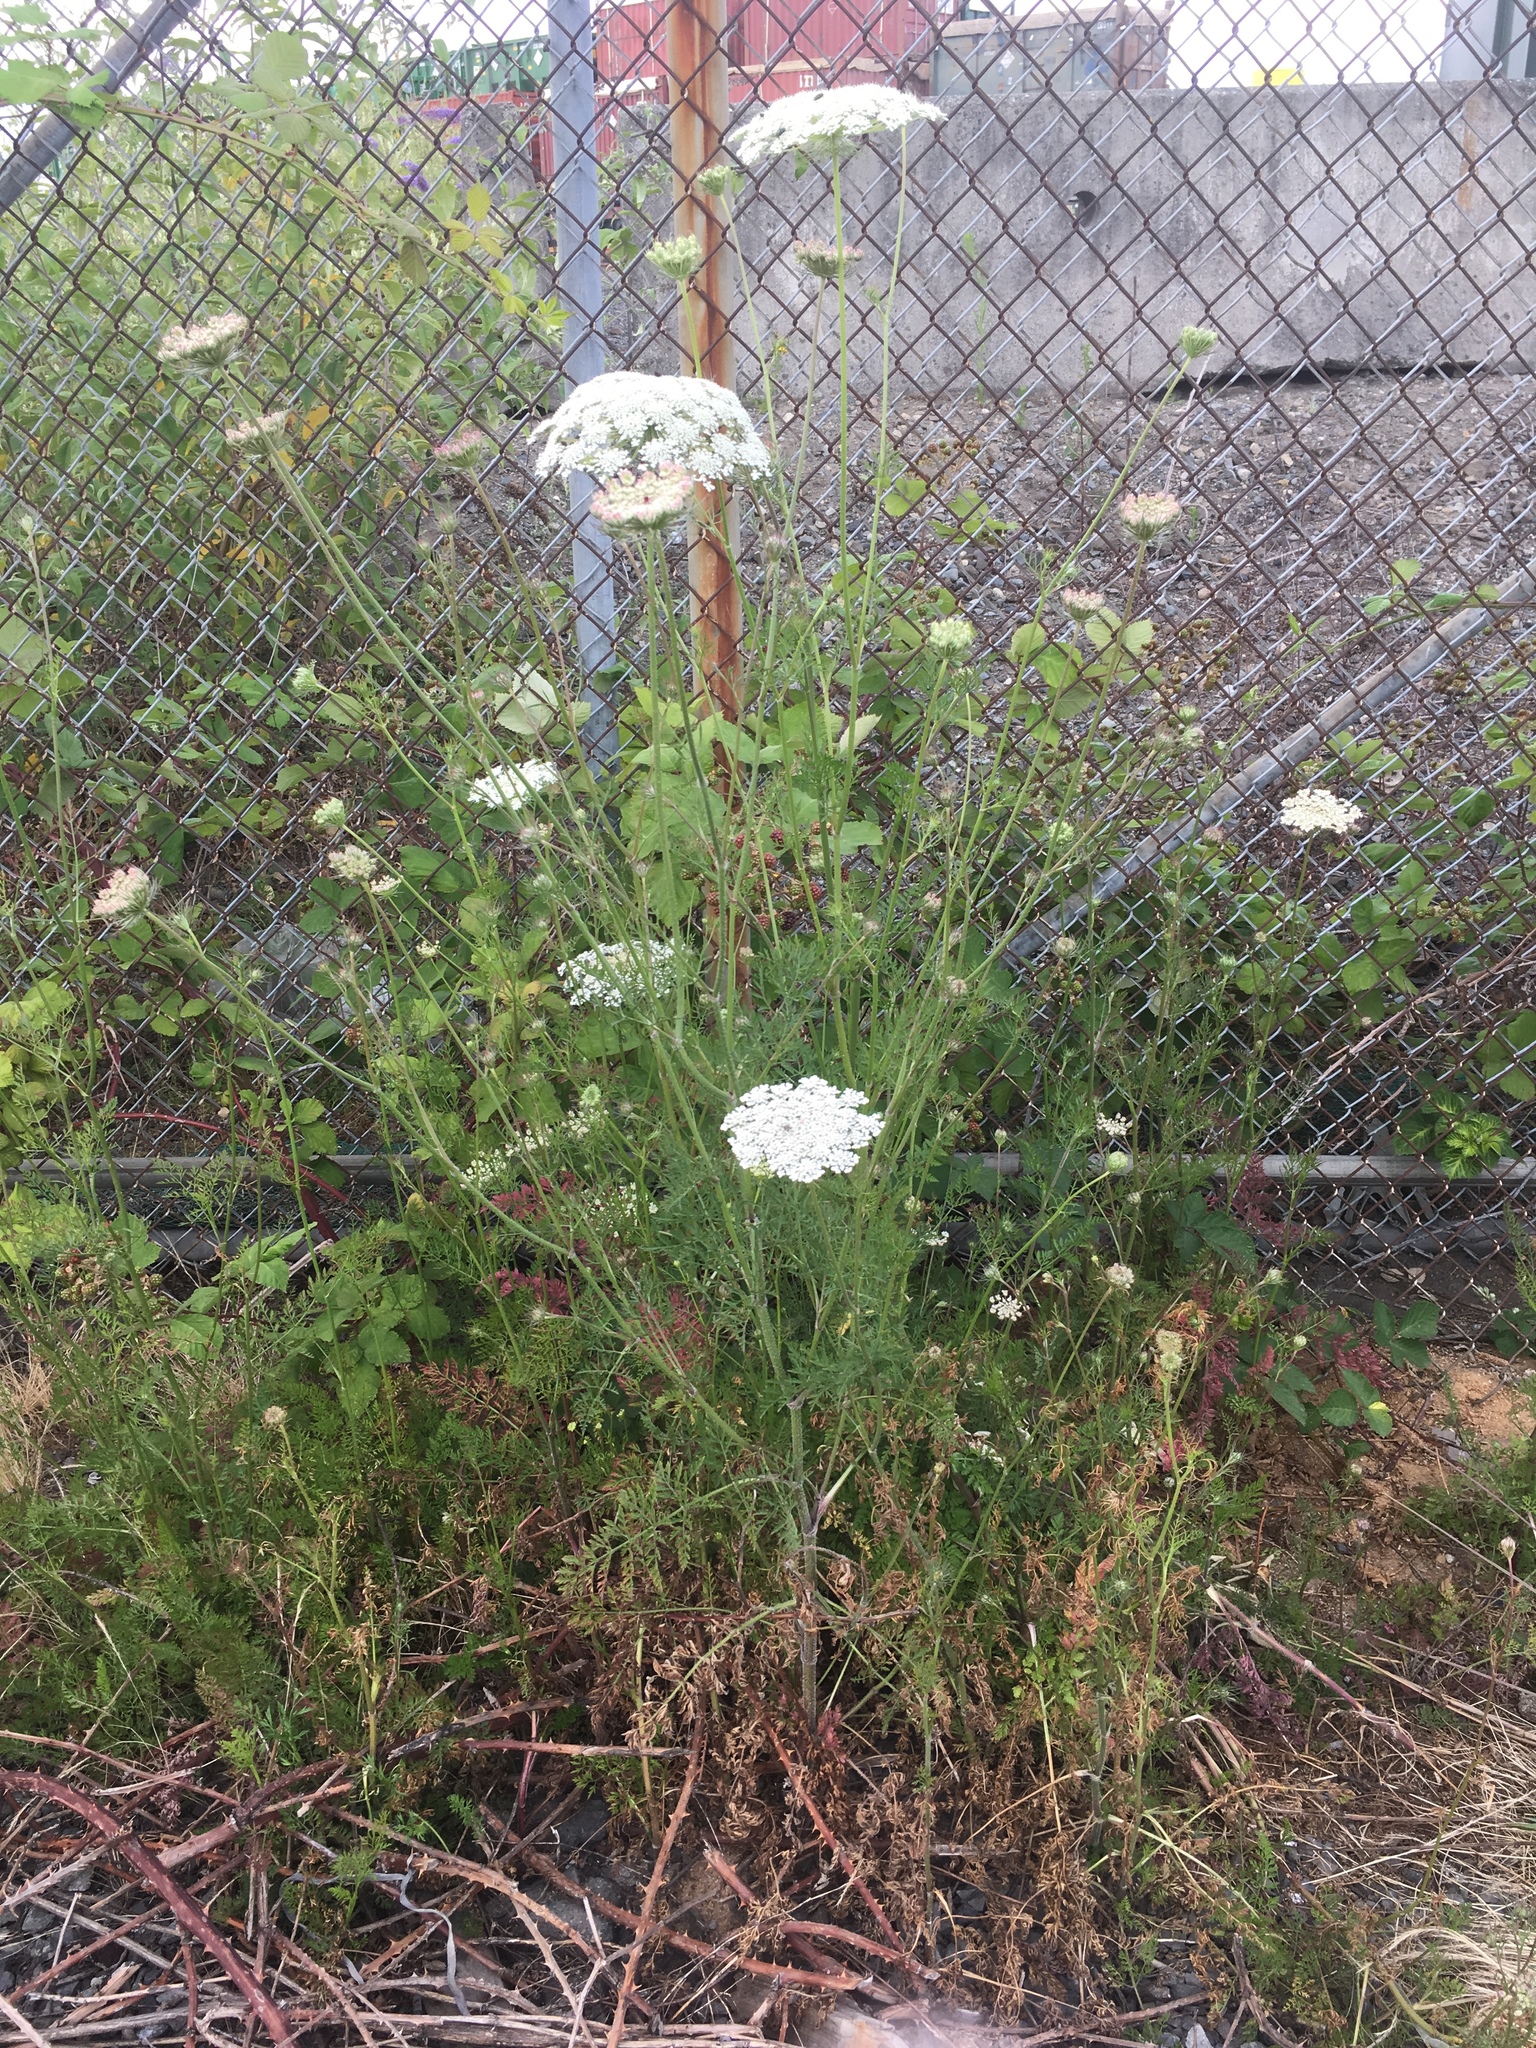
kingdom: Plantae
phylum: Tracheophyta
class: Magnoliopsida
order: Apiales
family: Apiaceae
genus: Daucus
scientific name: Daucus carota
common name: Wild carrot
